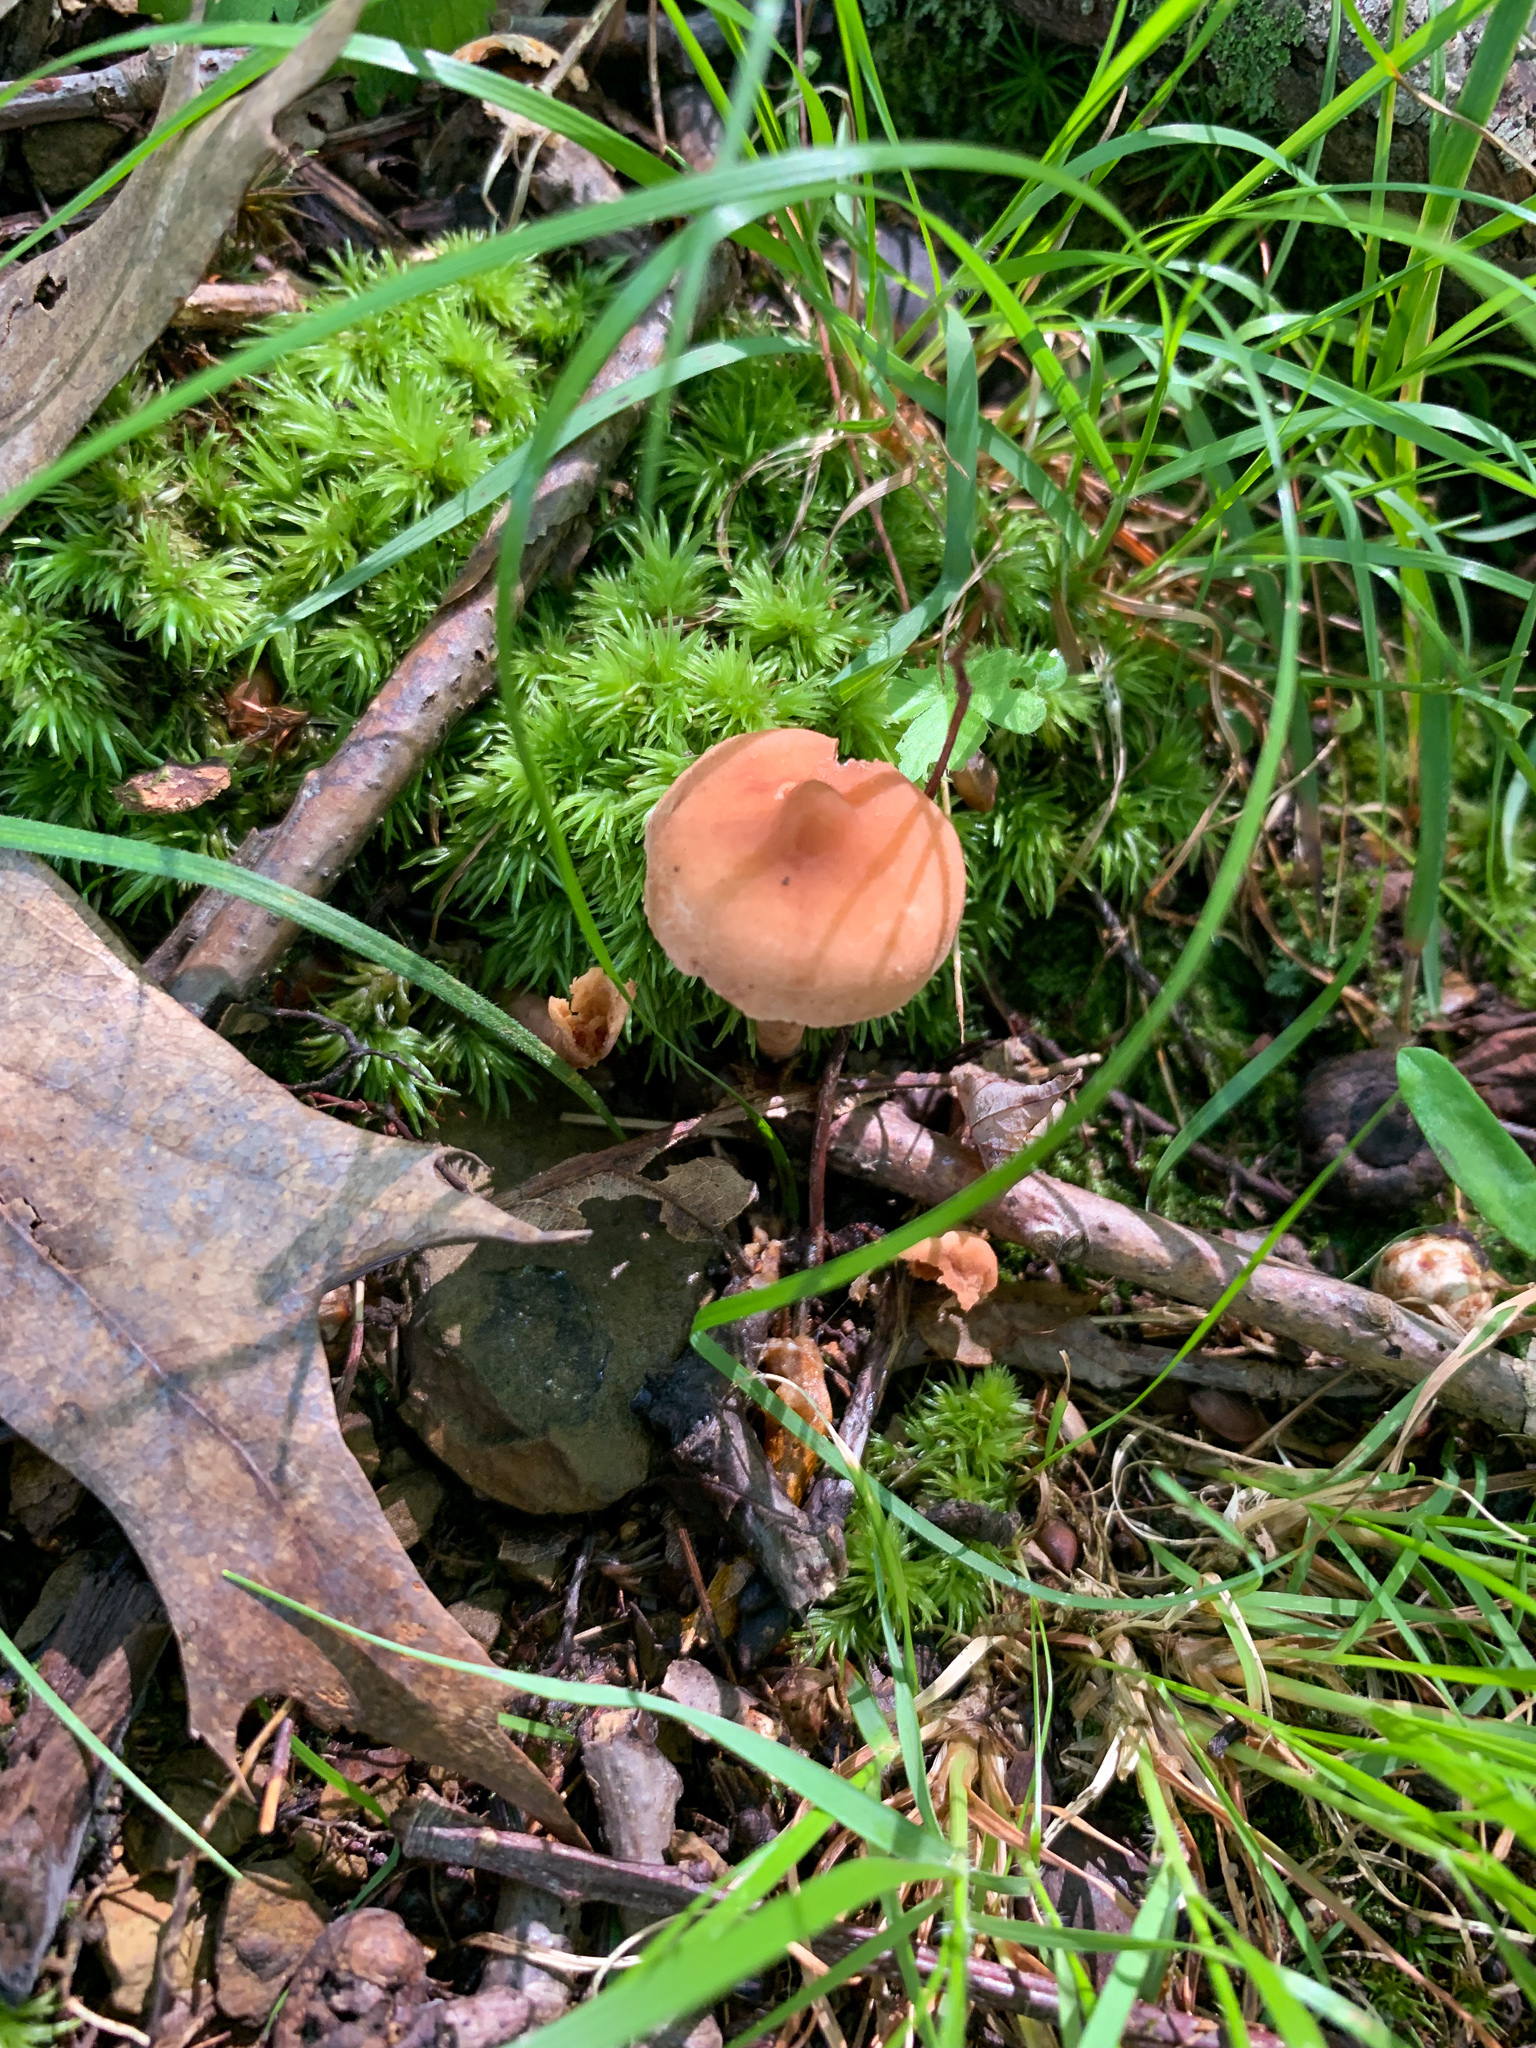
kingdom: Fungi
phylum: Basidiomycota
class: Agaricomycetes
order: Russulales
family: Russulaceae
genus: Lactarius
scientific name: Lactarius subdulcis
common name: Mild milkcap
